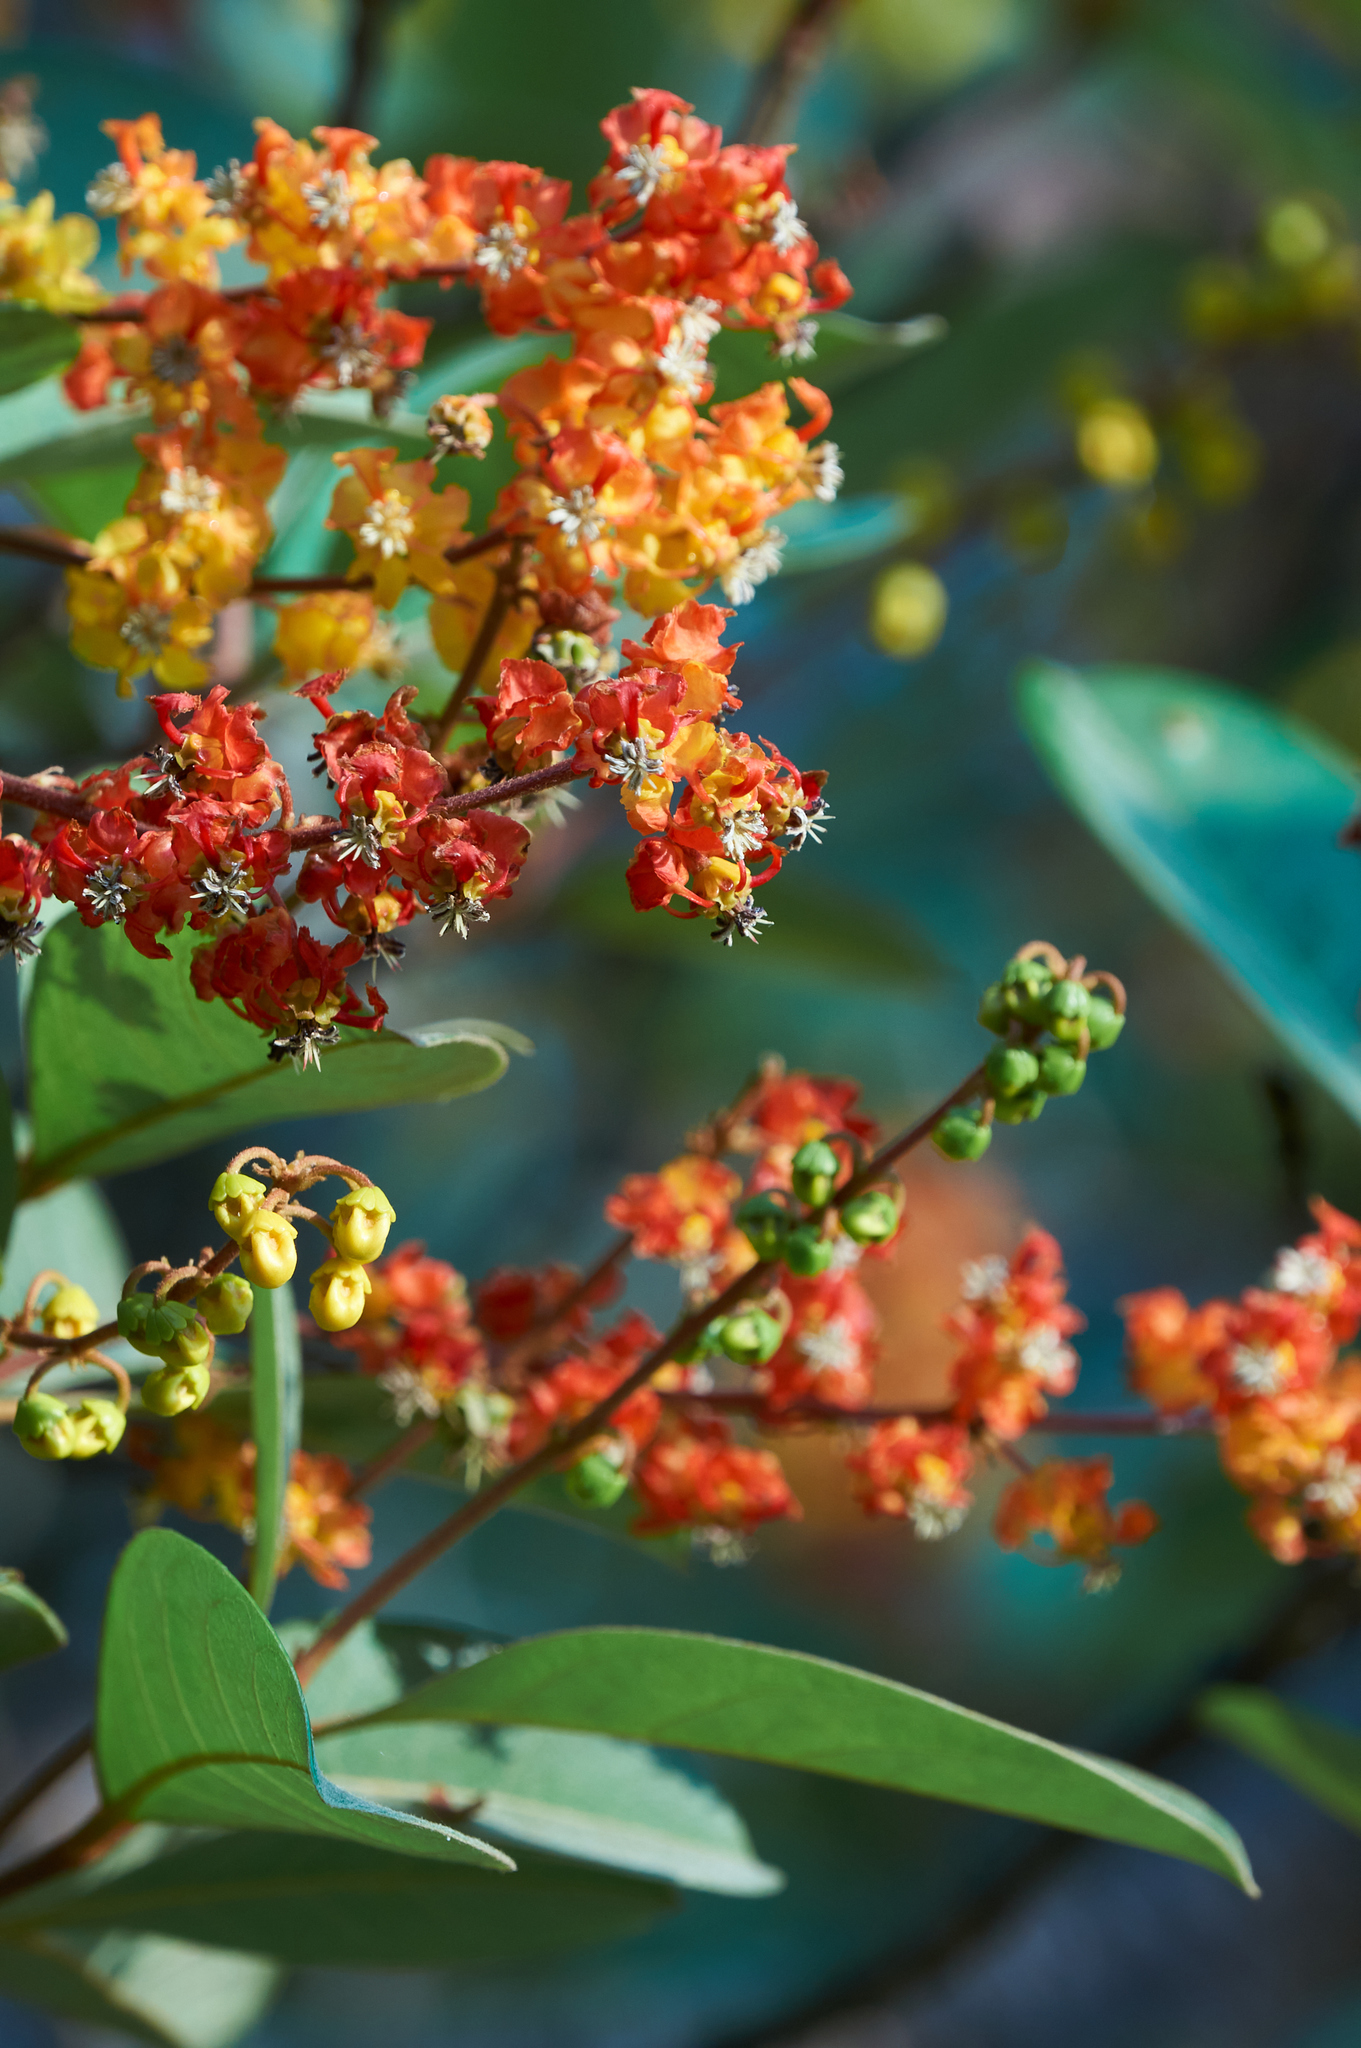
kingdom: Plantae
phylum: Tracheophyta
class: Magnoliopsida
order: Malpighiales
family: Malpighiaceae
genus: Byrsonima
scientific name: Byrsonima crassifolia
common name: Golden spoon
